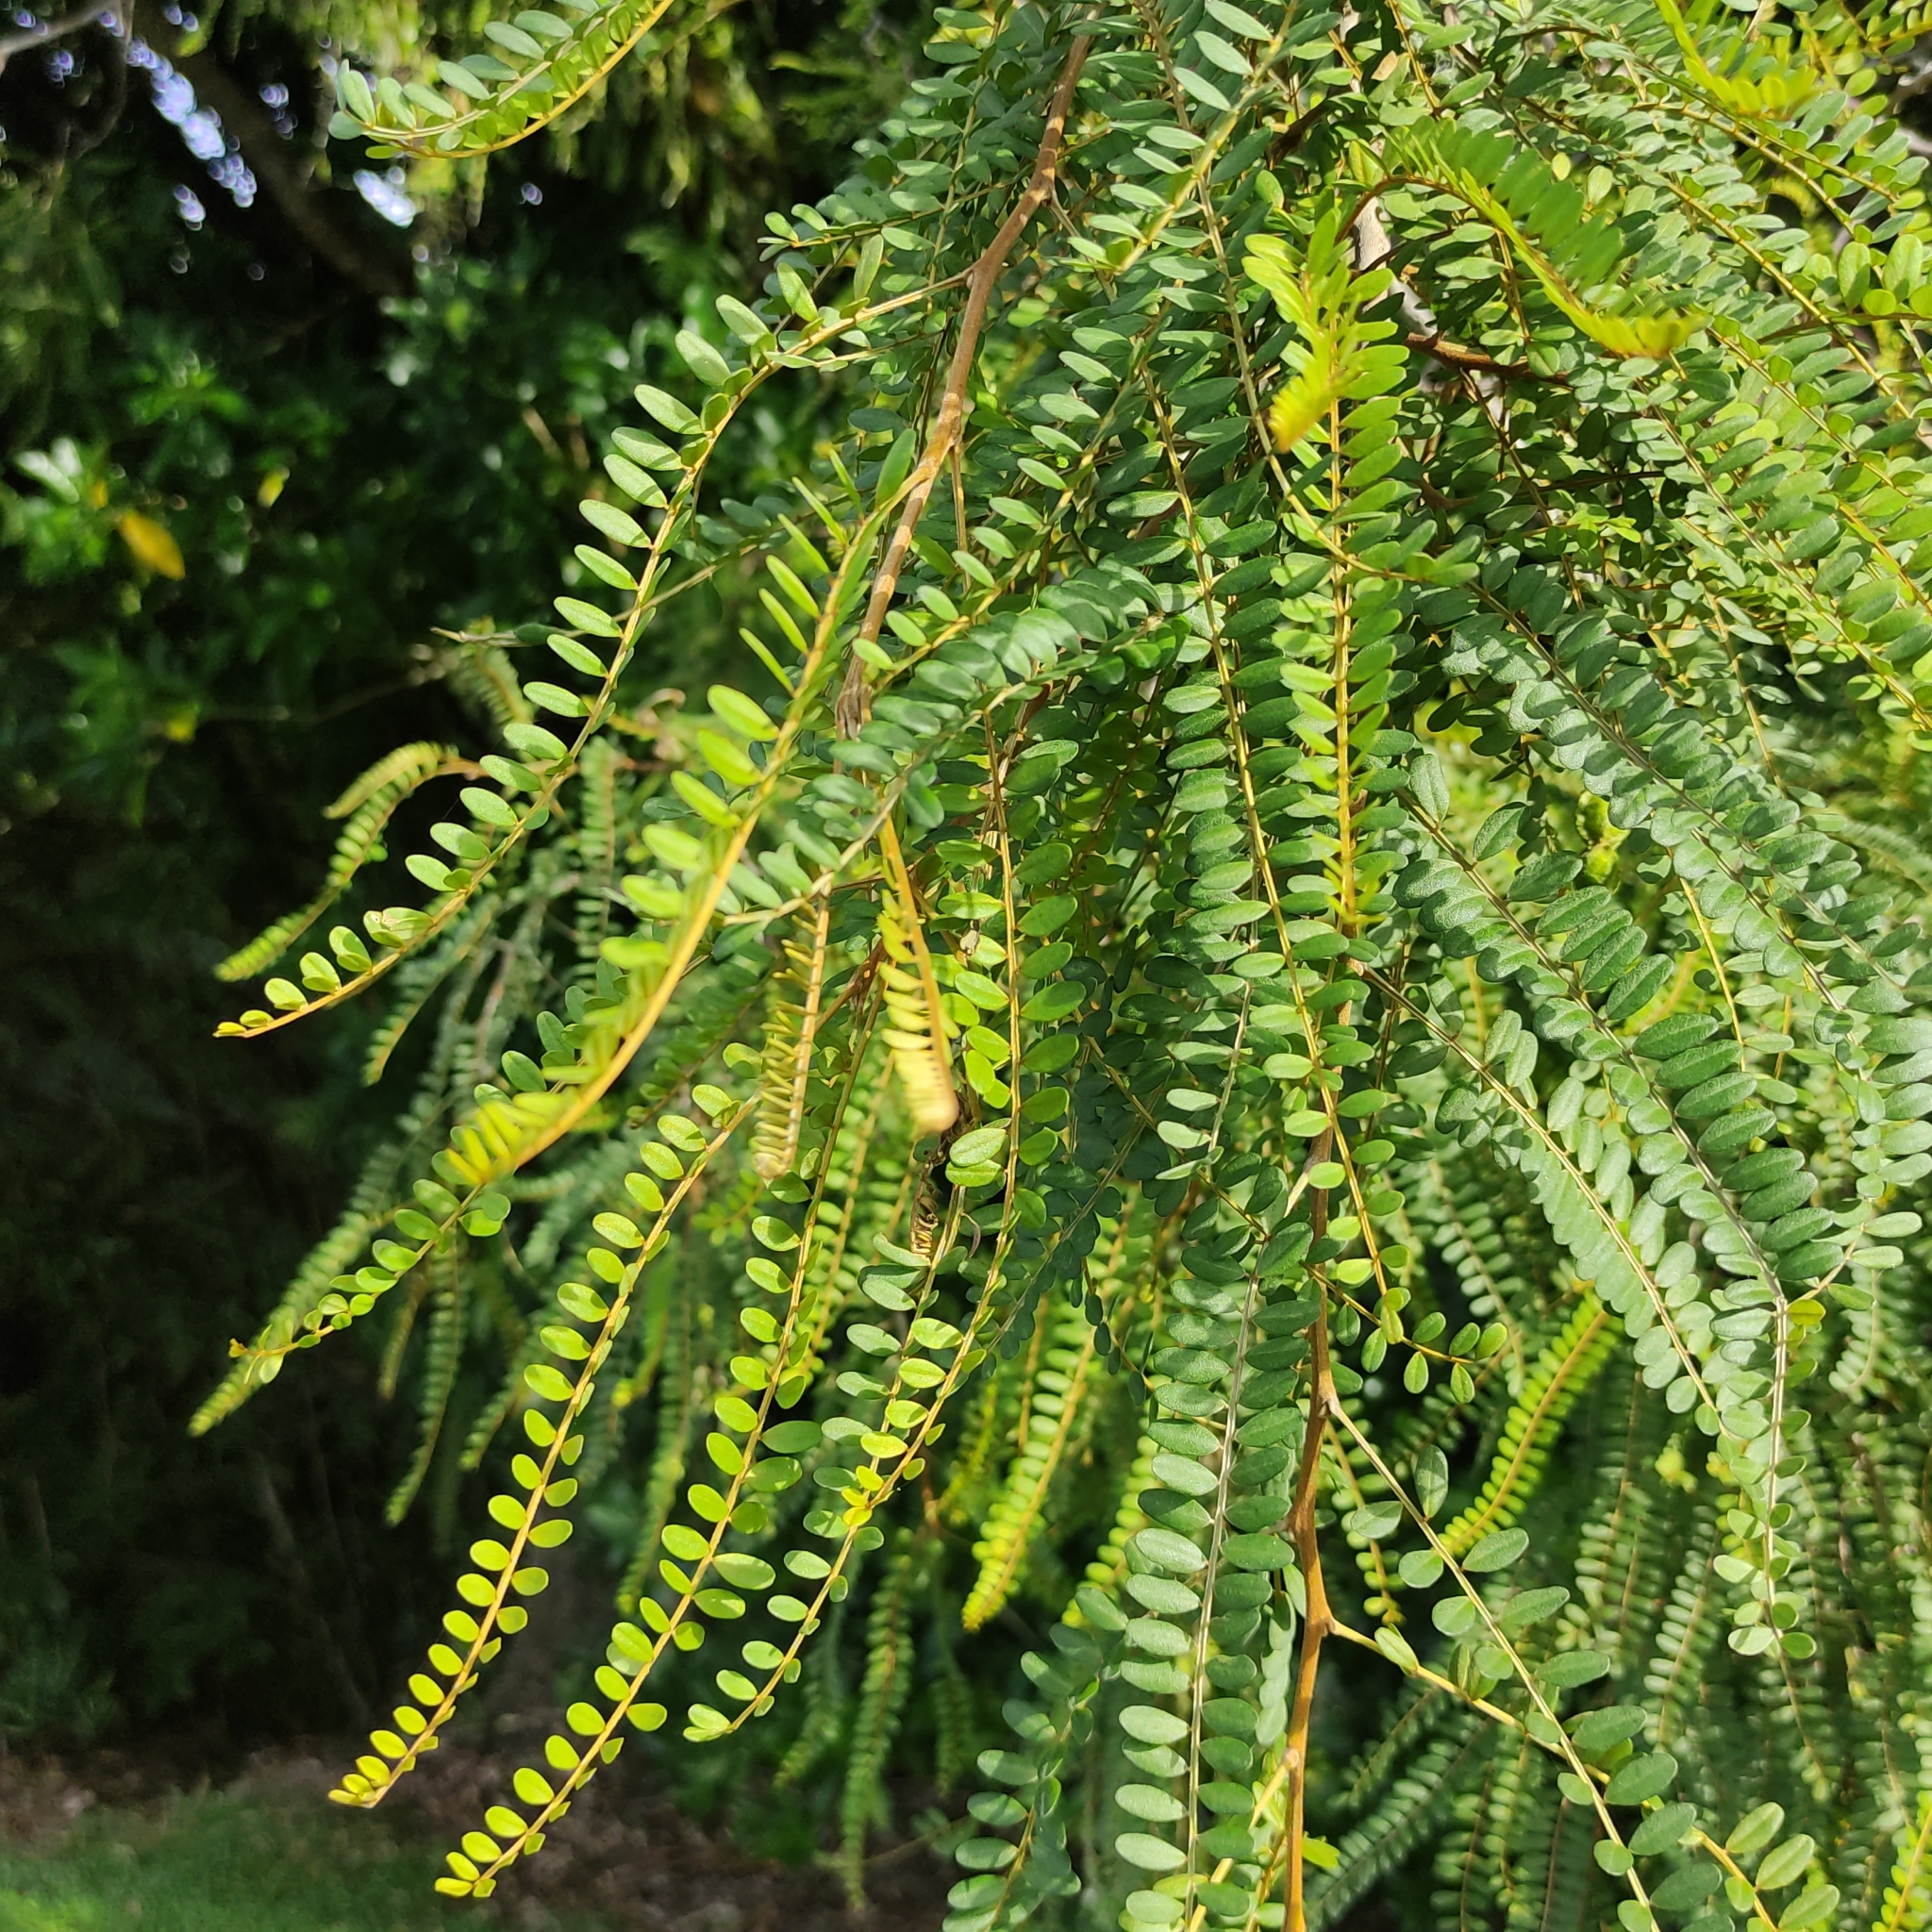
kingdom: Plantae
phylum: Tracheophyta
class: Magnoliopsida
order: Fabales
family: Fabaceae
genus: Sophora
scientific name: Sophora microphylla
